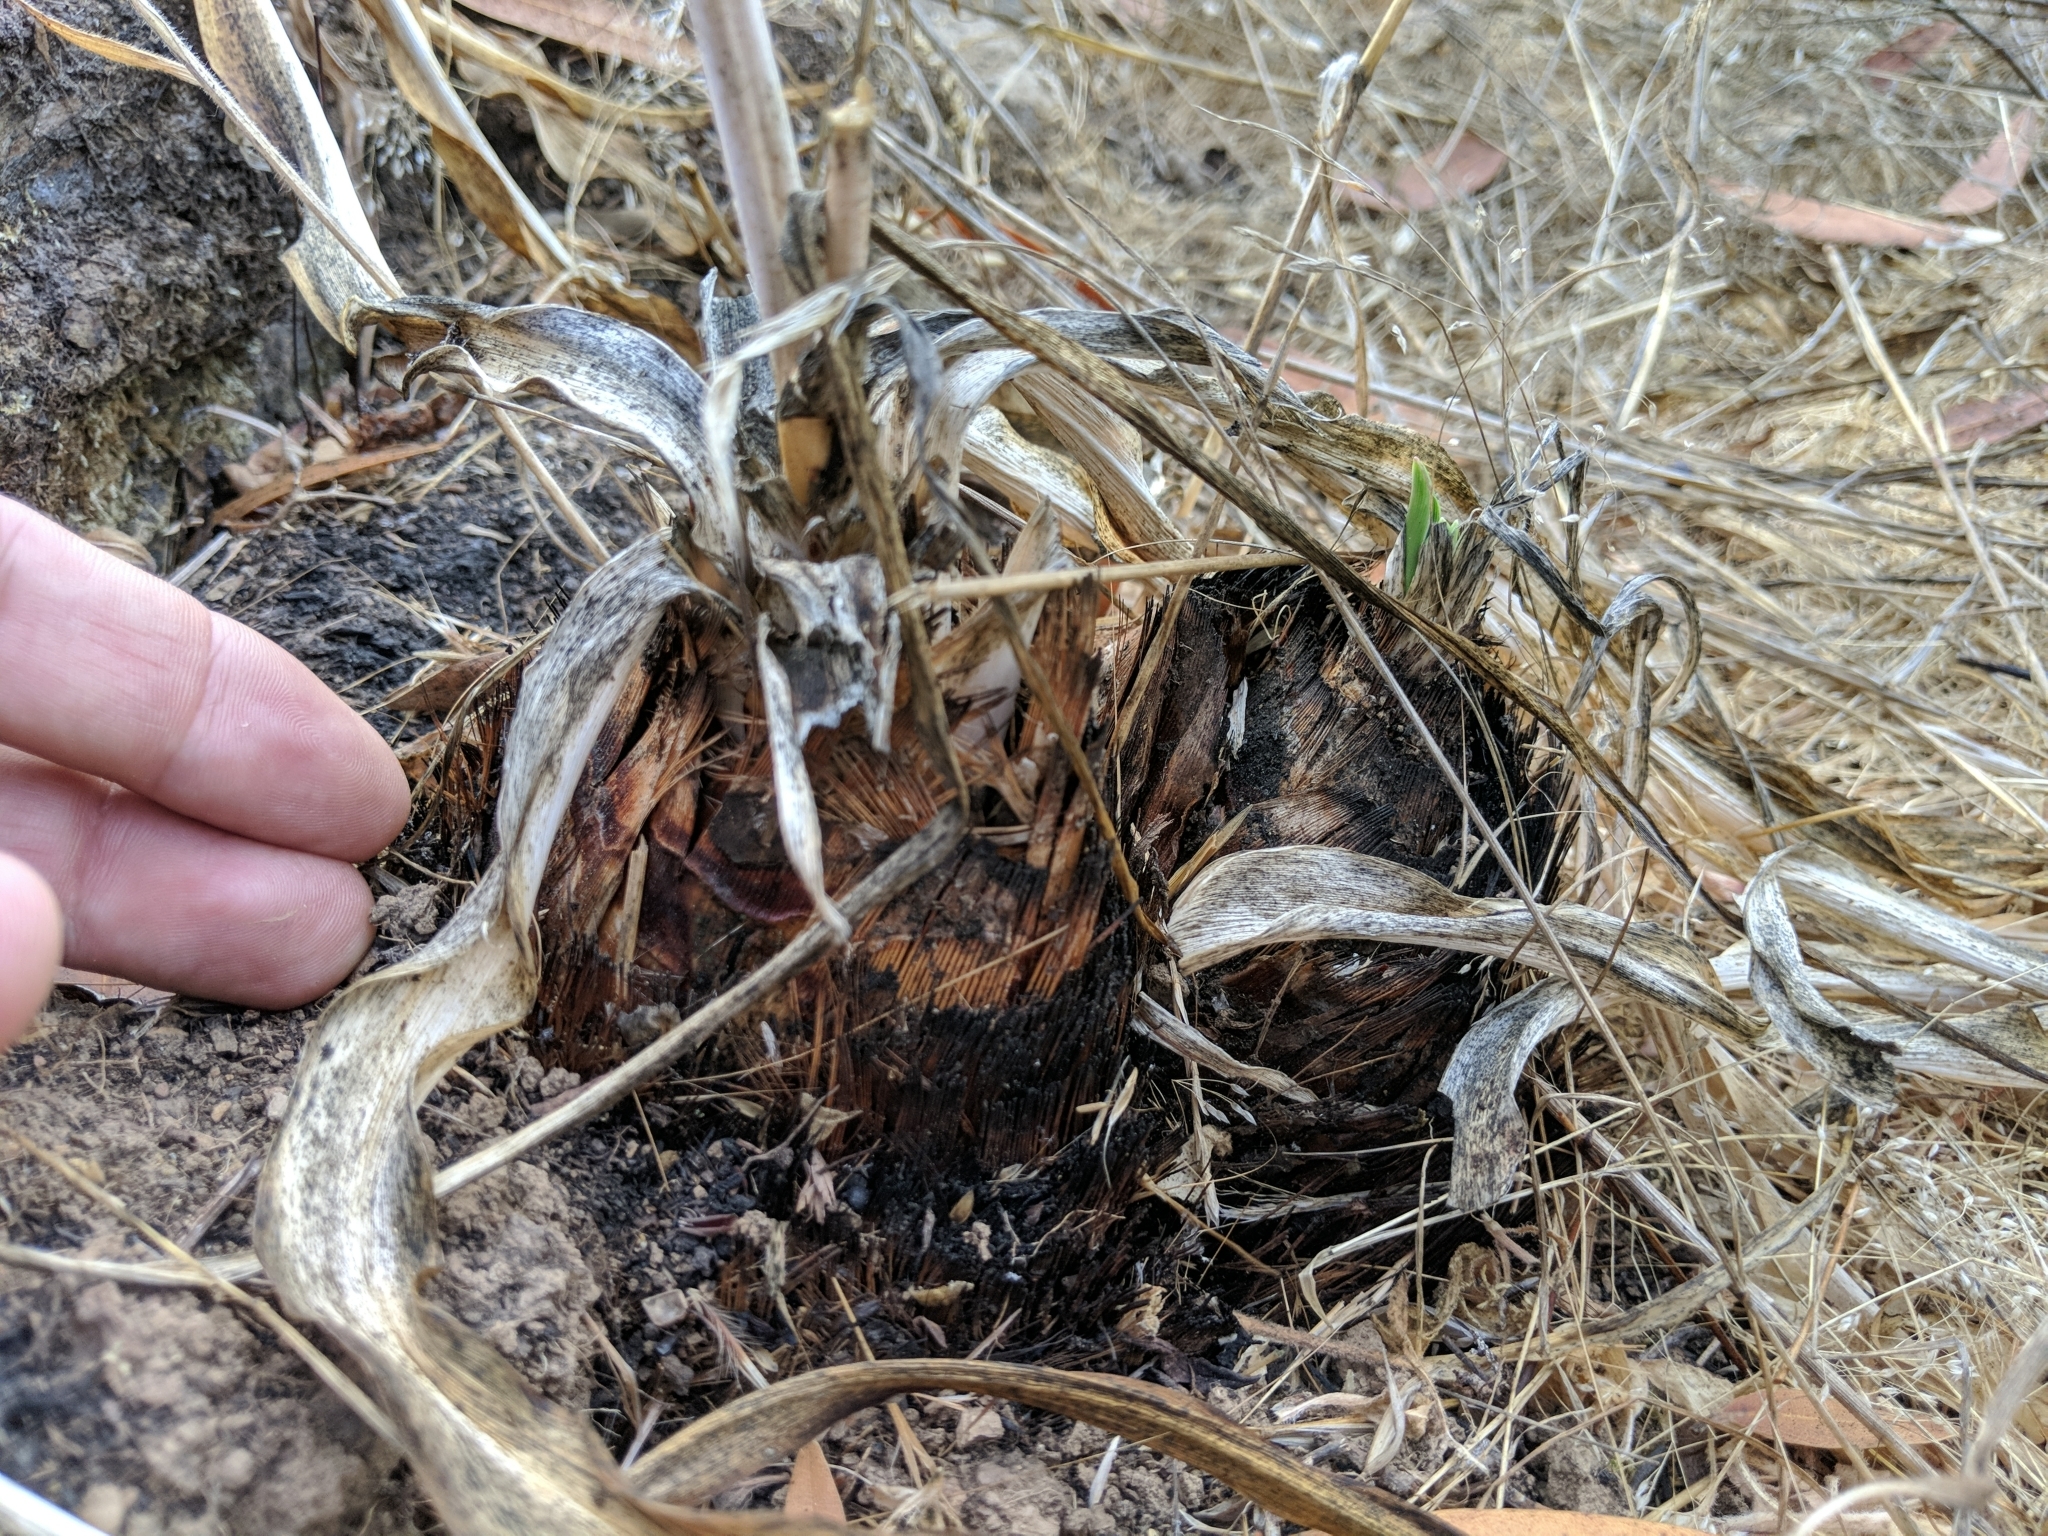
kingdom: Plantae
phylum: Tracheophyta
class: Liliopsida
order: Asparagales
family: Asparagaceae
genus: Chlorogalum
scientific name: Chlorogalum pomeridianum
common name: Amole
